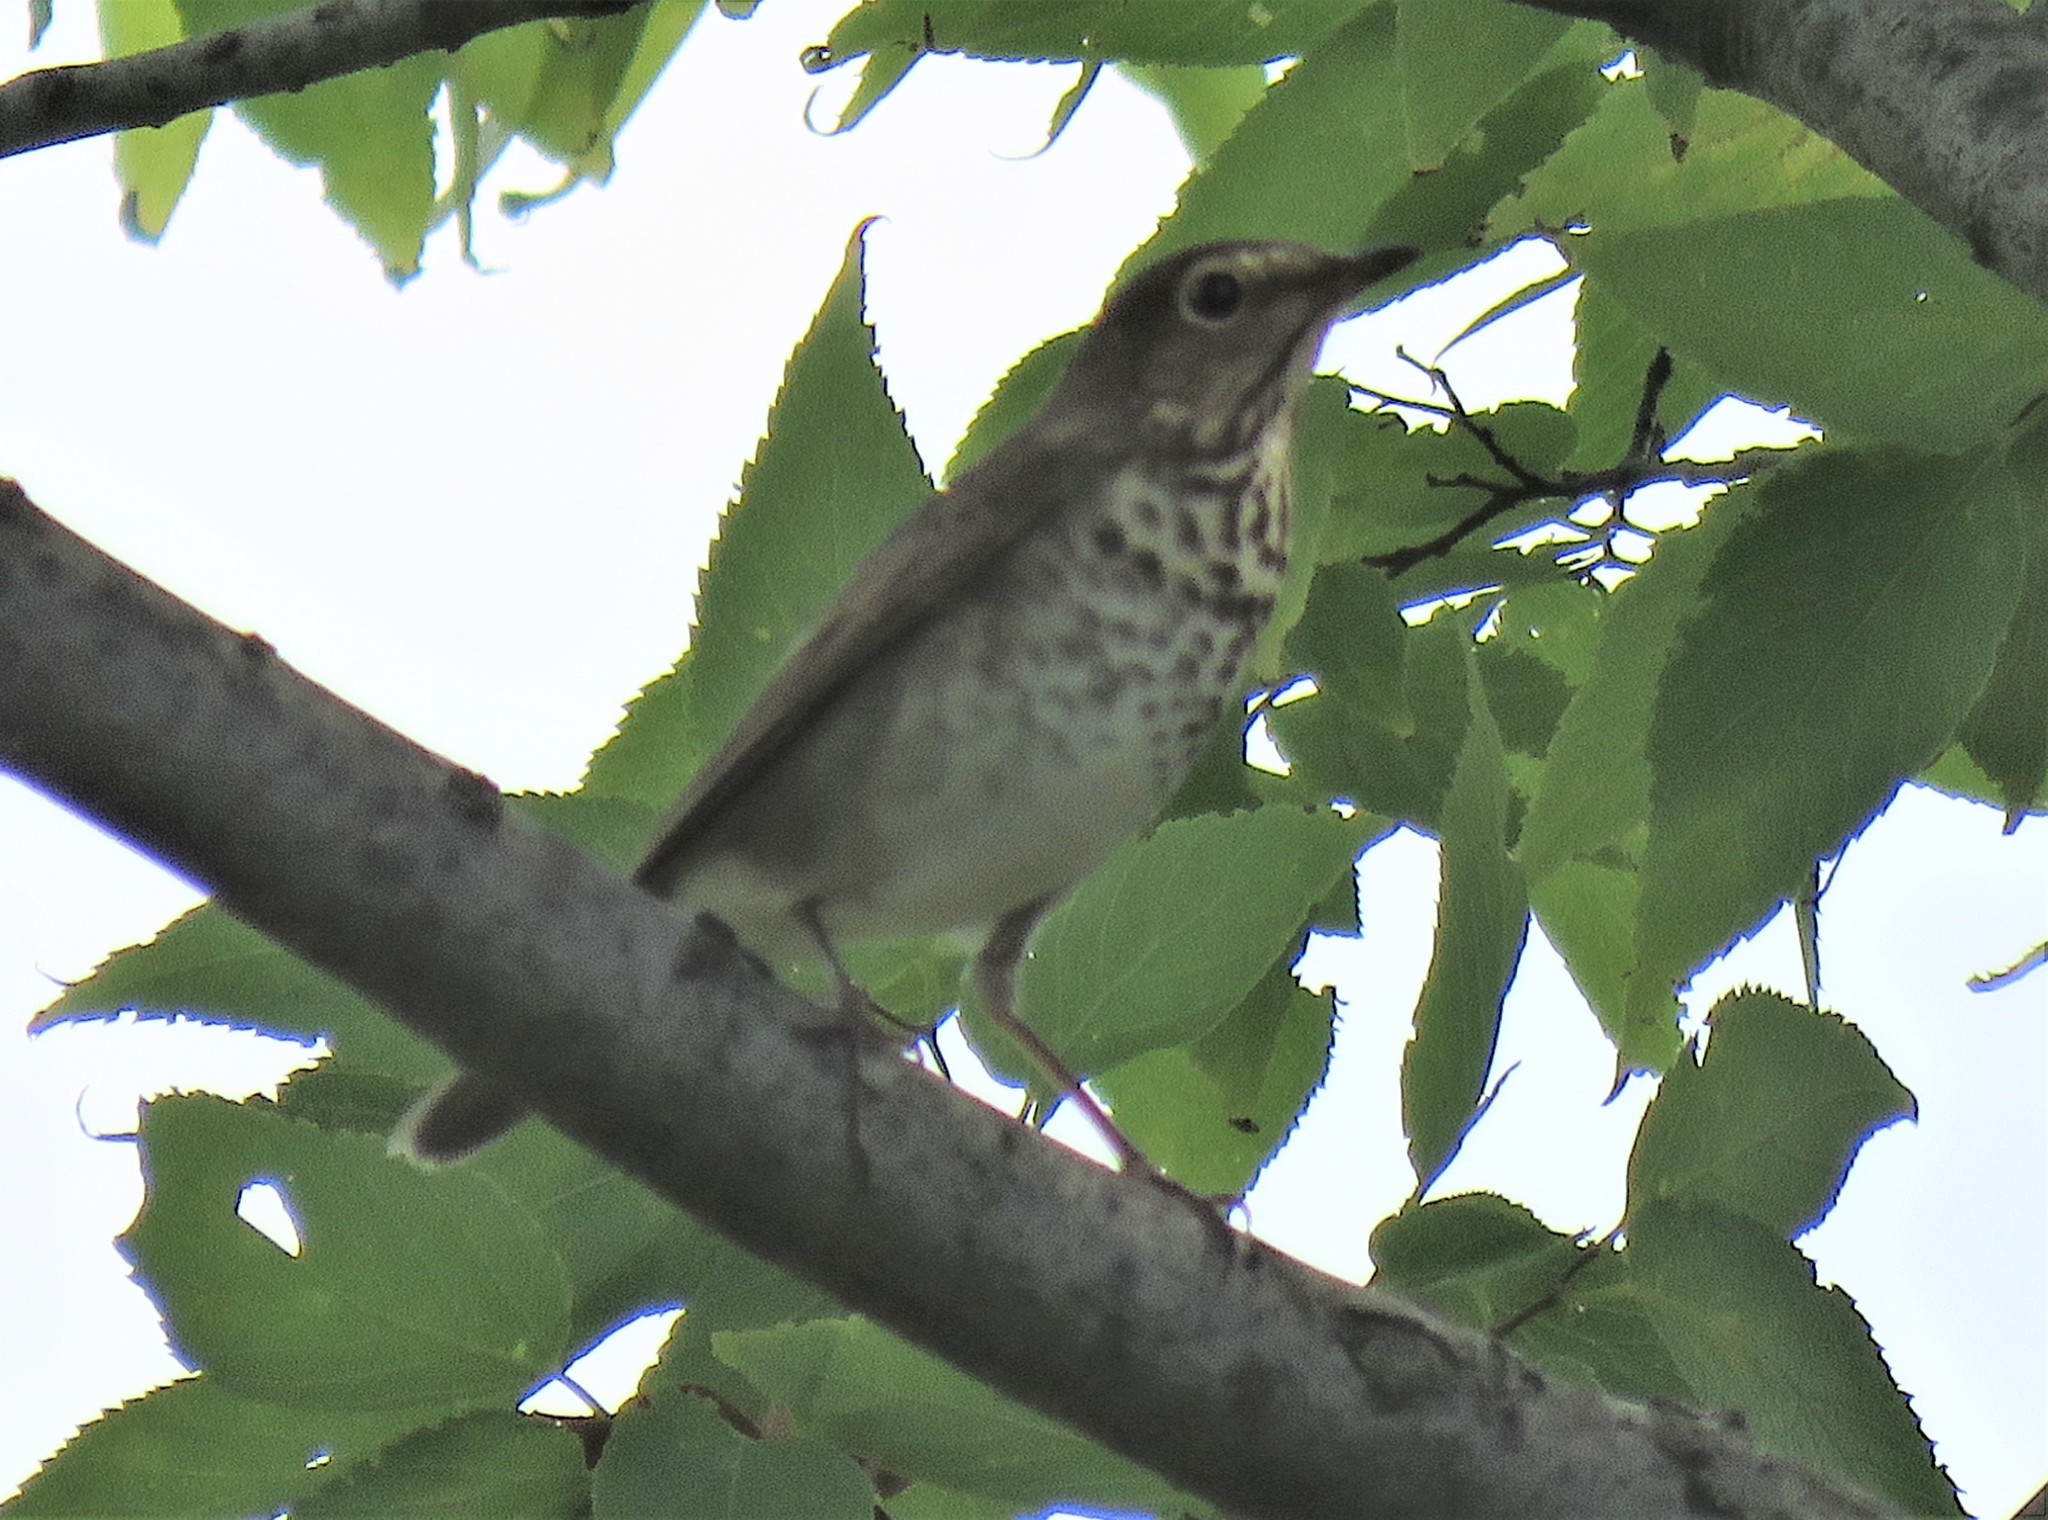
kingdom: Animalia
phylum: Chordata
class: Aves
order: Passeriformes
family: Turdidae
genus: Catharus
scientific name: Catharus ustulatus
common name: Swainson's thrush
